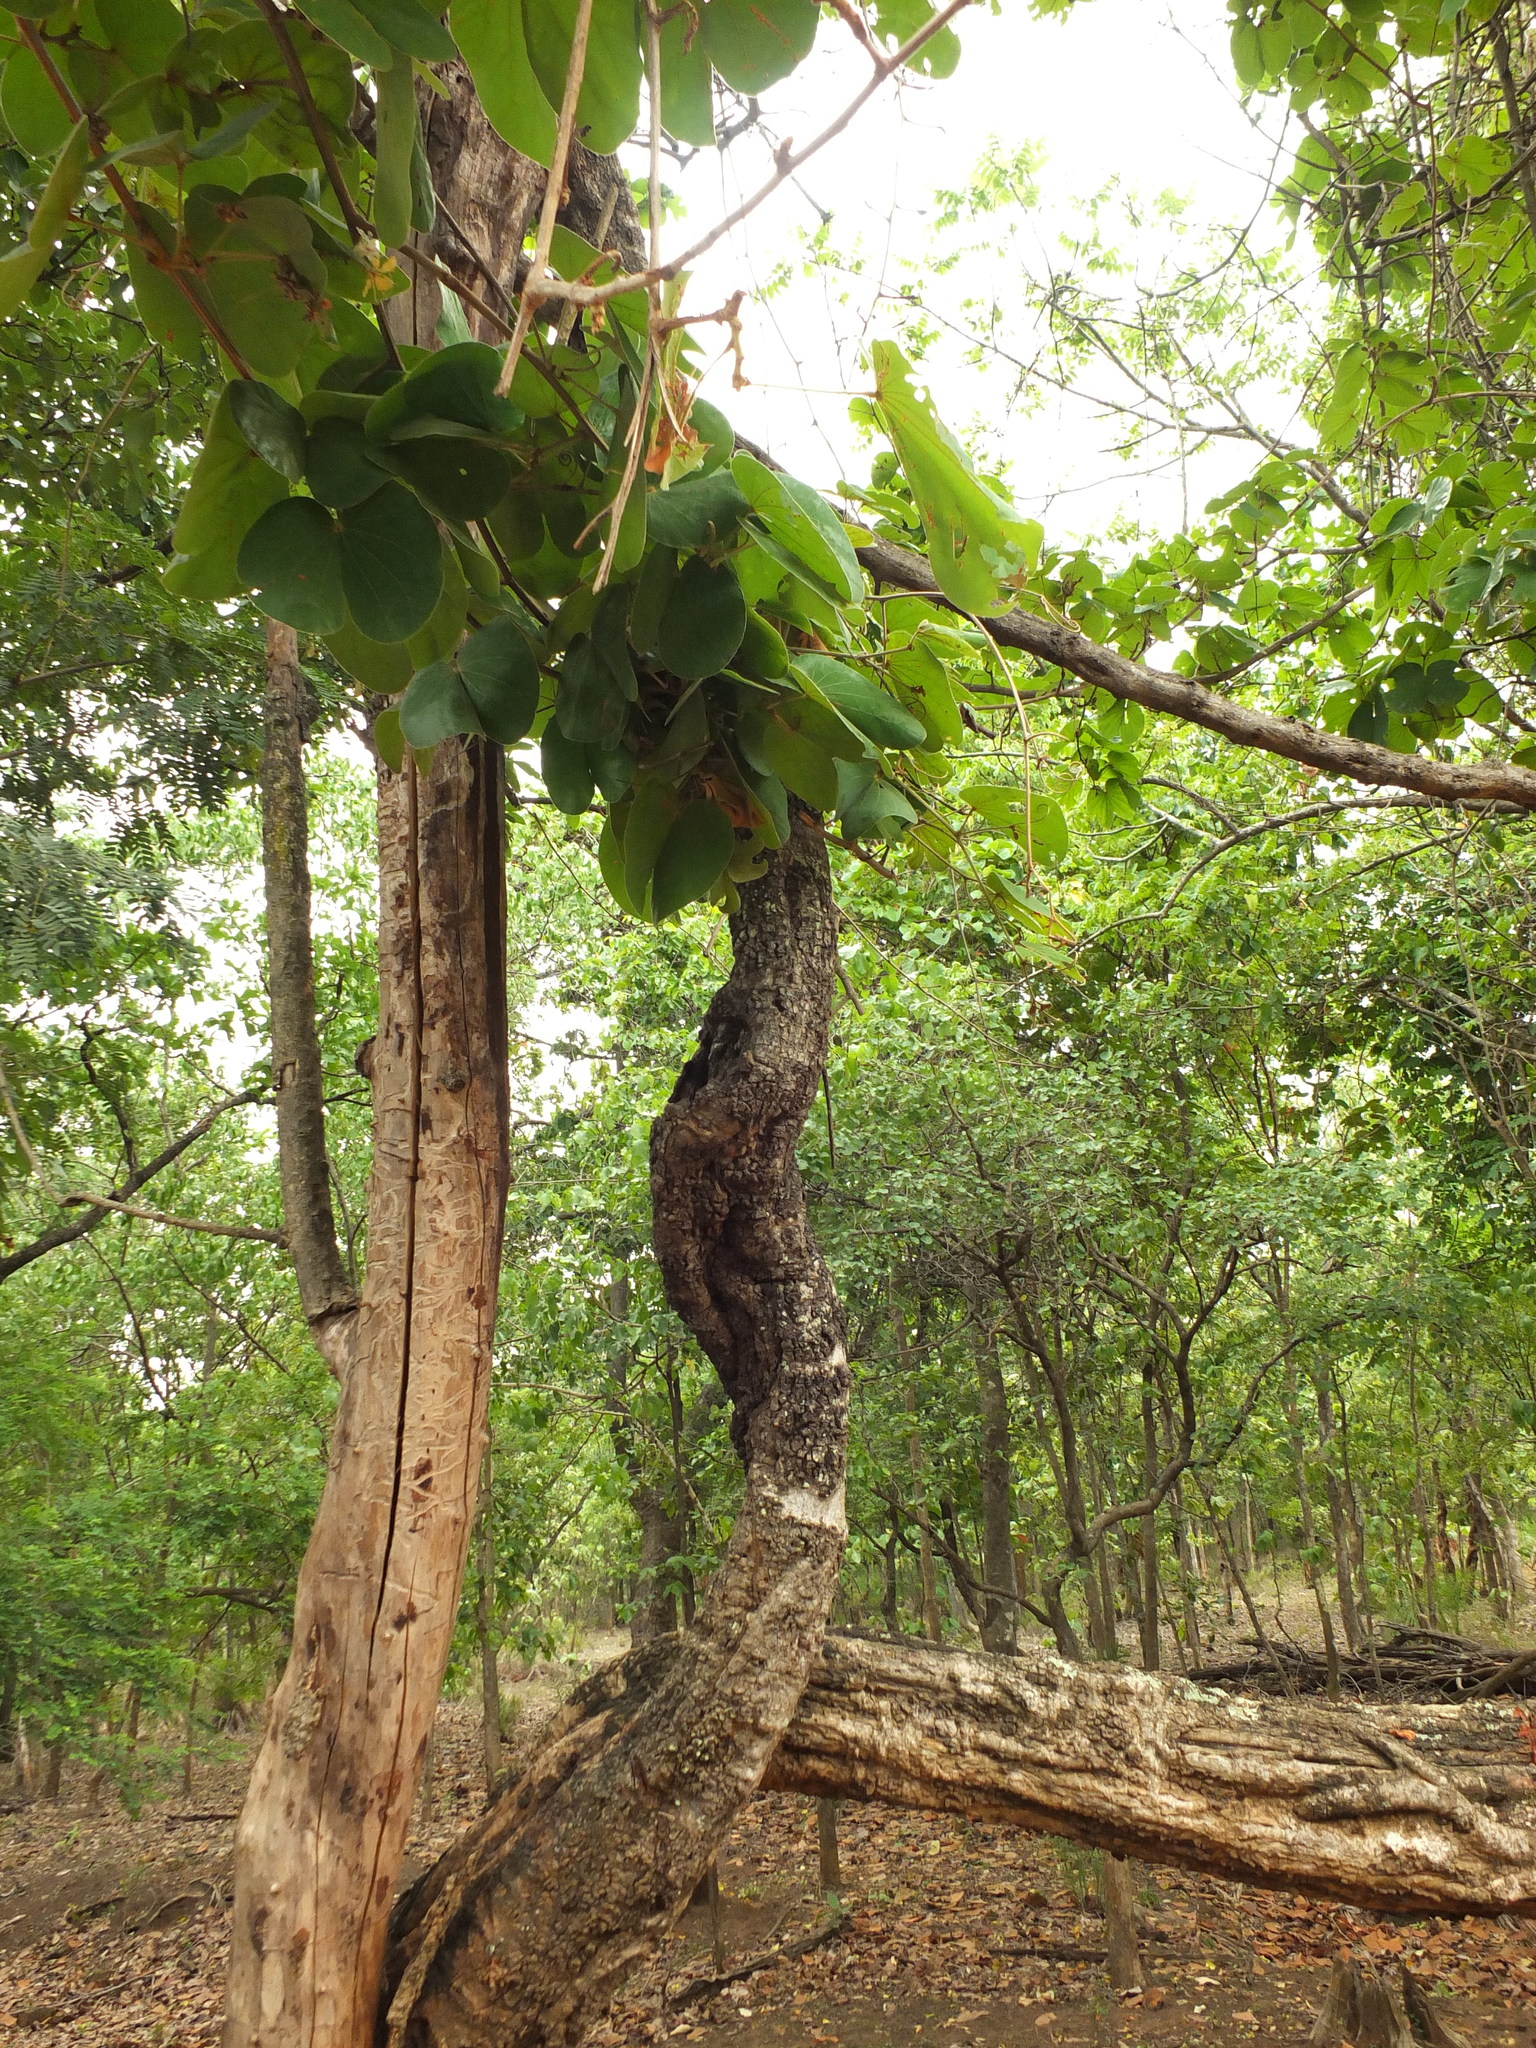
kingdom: Plantae
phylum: Tracheophyta
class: Magnoliopsida
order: Fabales
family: Fabaceae
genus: Phanera
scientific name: Phanera vahlii
